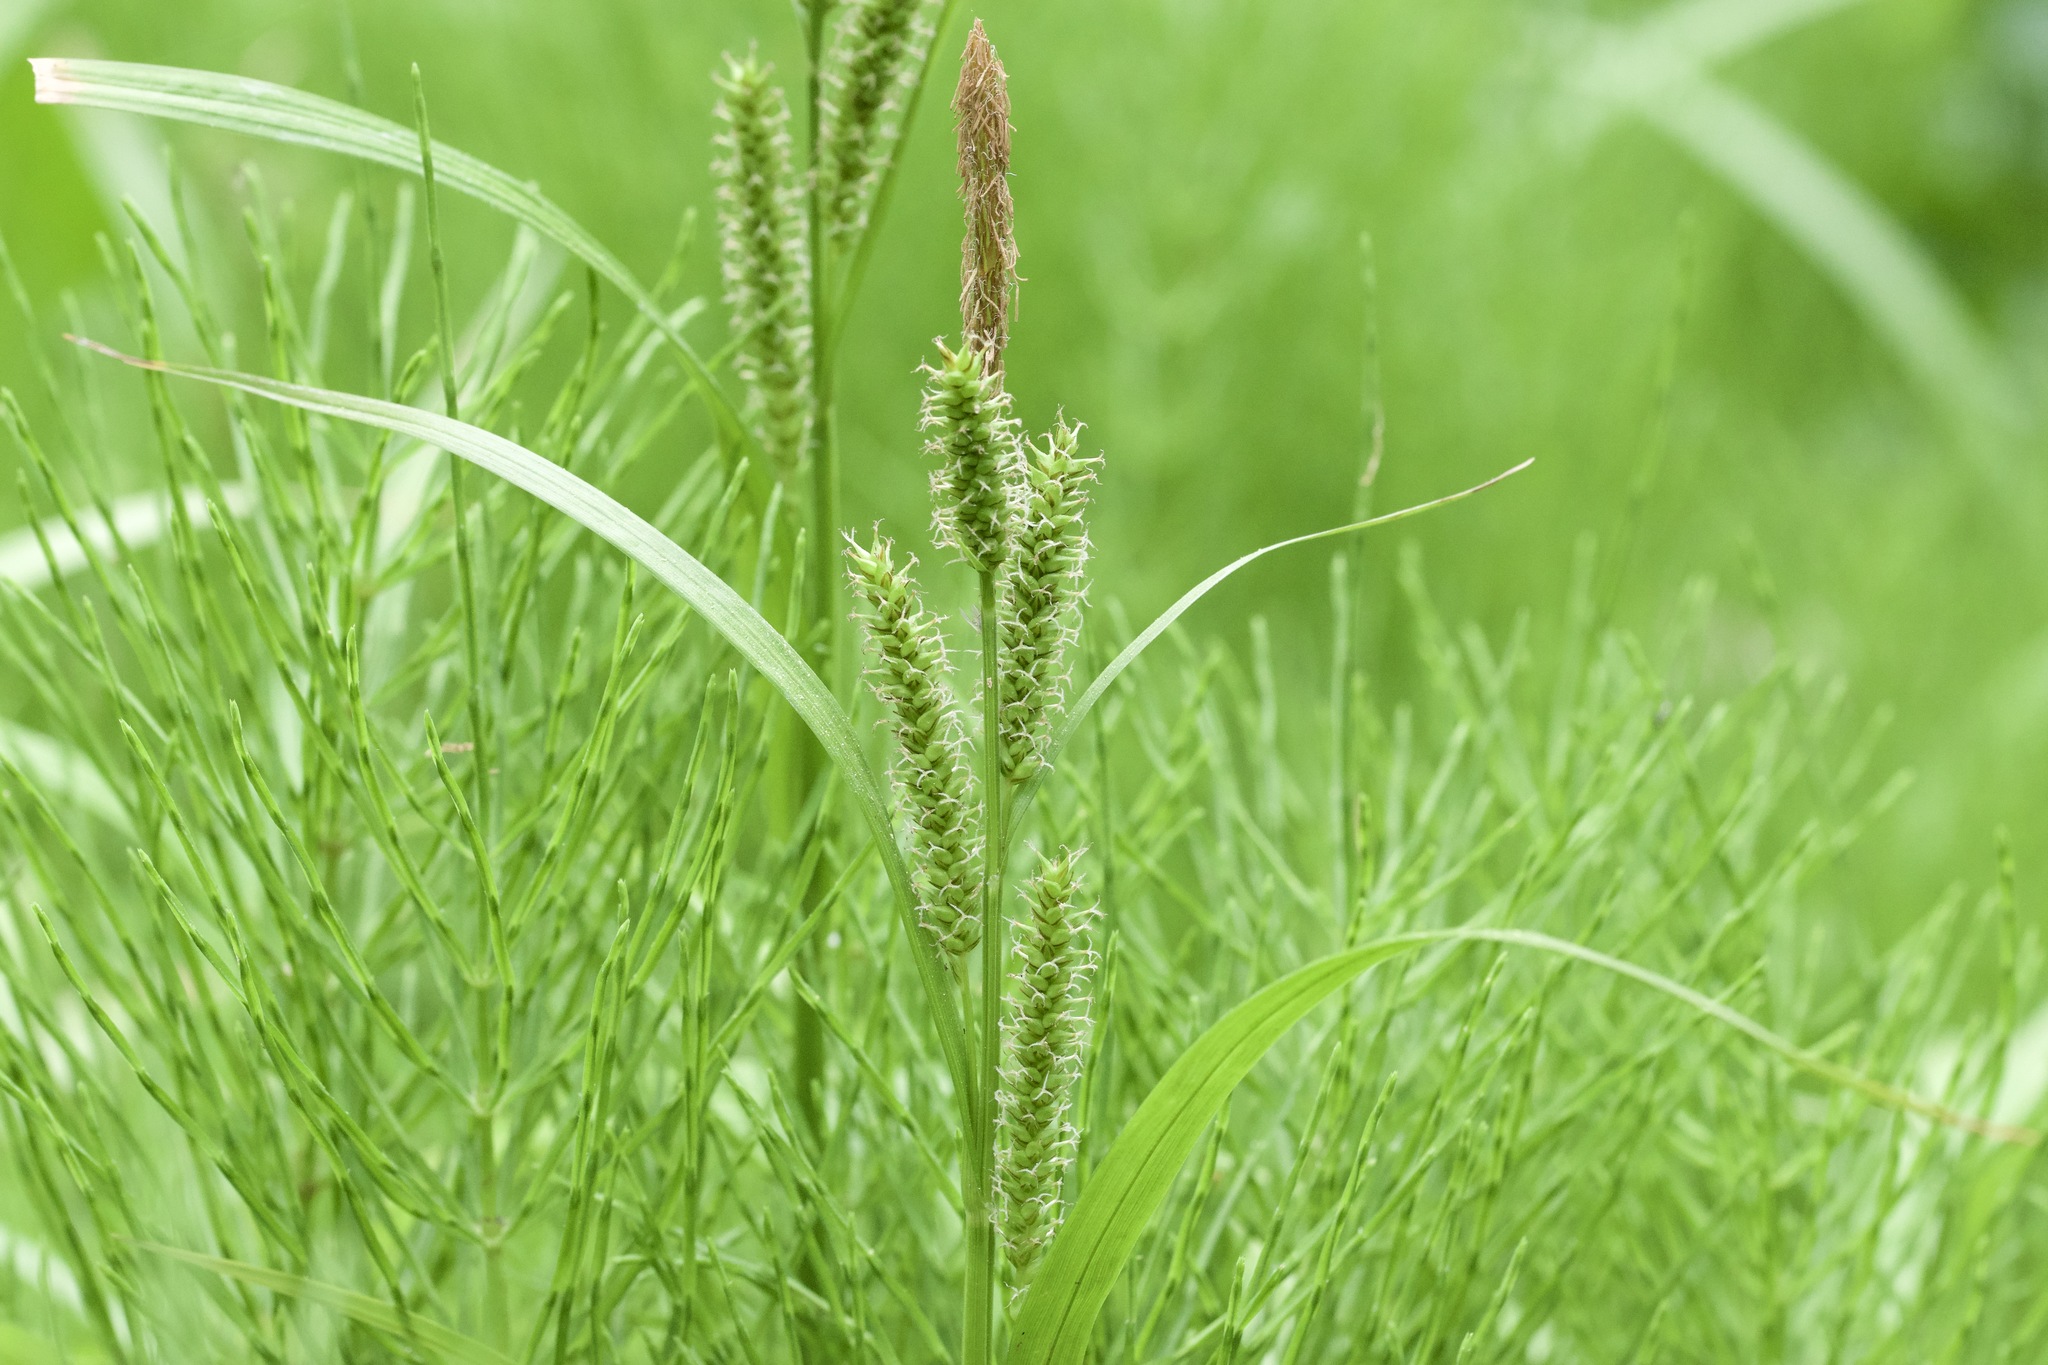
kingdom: Plantae
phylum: Tracheophyta
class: Liliopsida
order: Poales
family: Cyperaceae
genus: Carex
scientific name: Carex scabrata
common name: Eastern rough sedge
